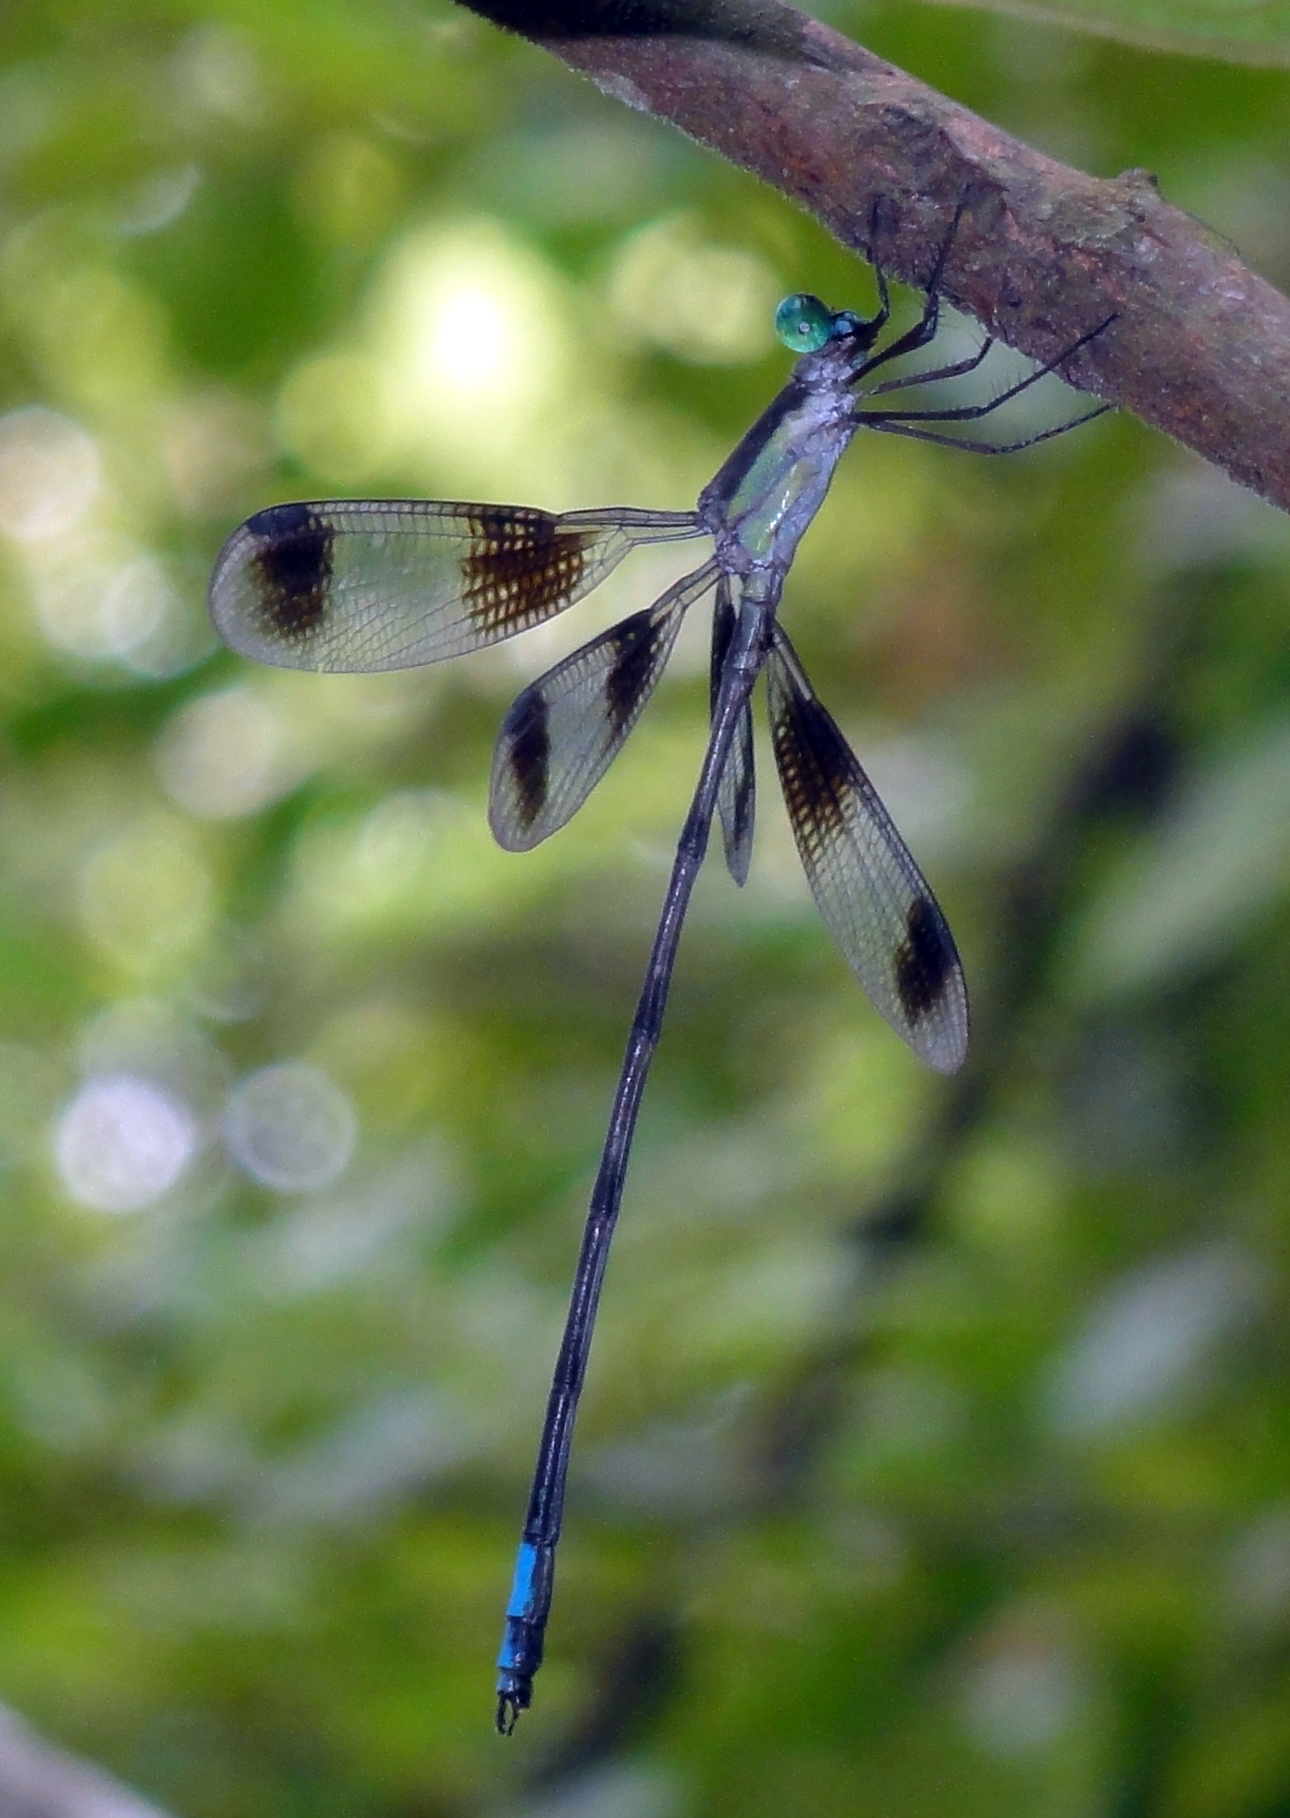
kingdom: Animalia
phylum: Arthropoda
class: Insecta
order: Odonata
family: Lestidae
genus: Orolestes
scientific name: Orolestes octomaculatus
